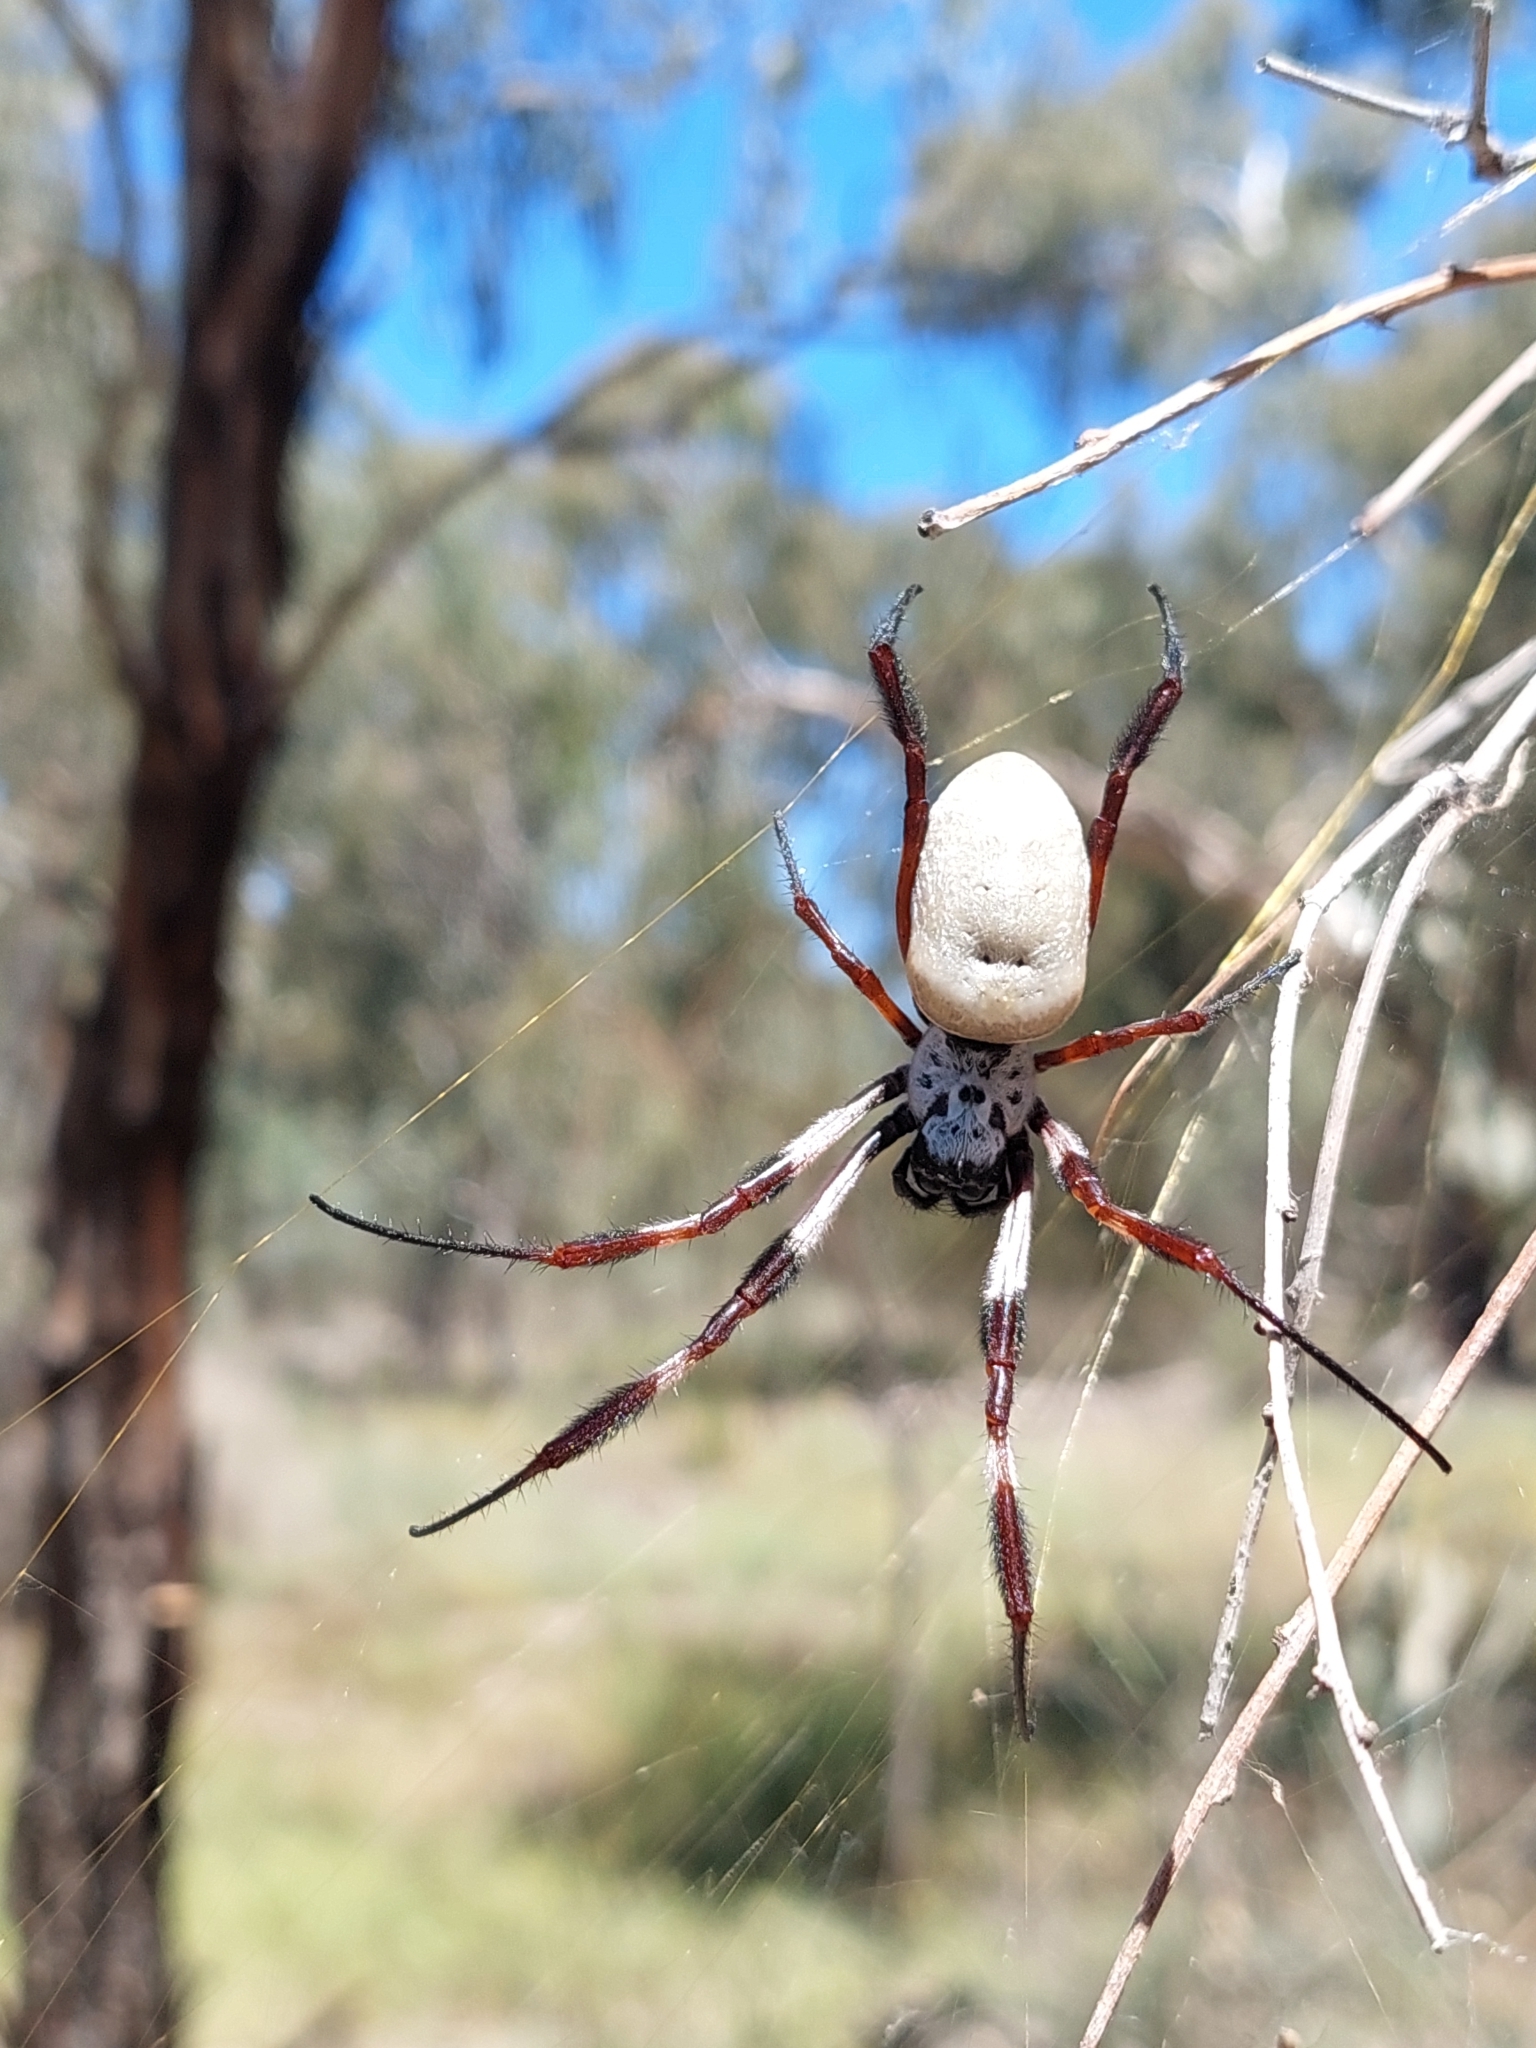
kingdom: Animalia
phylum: Arthropoda
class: Arachnida
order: Araneae
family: Araneidae
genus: Trichonephila
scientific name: Trichonephila edulis
